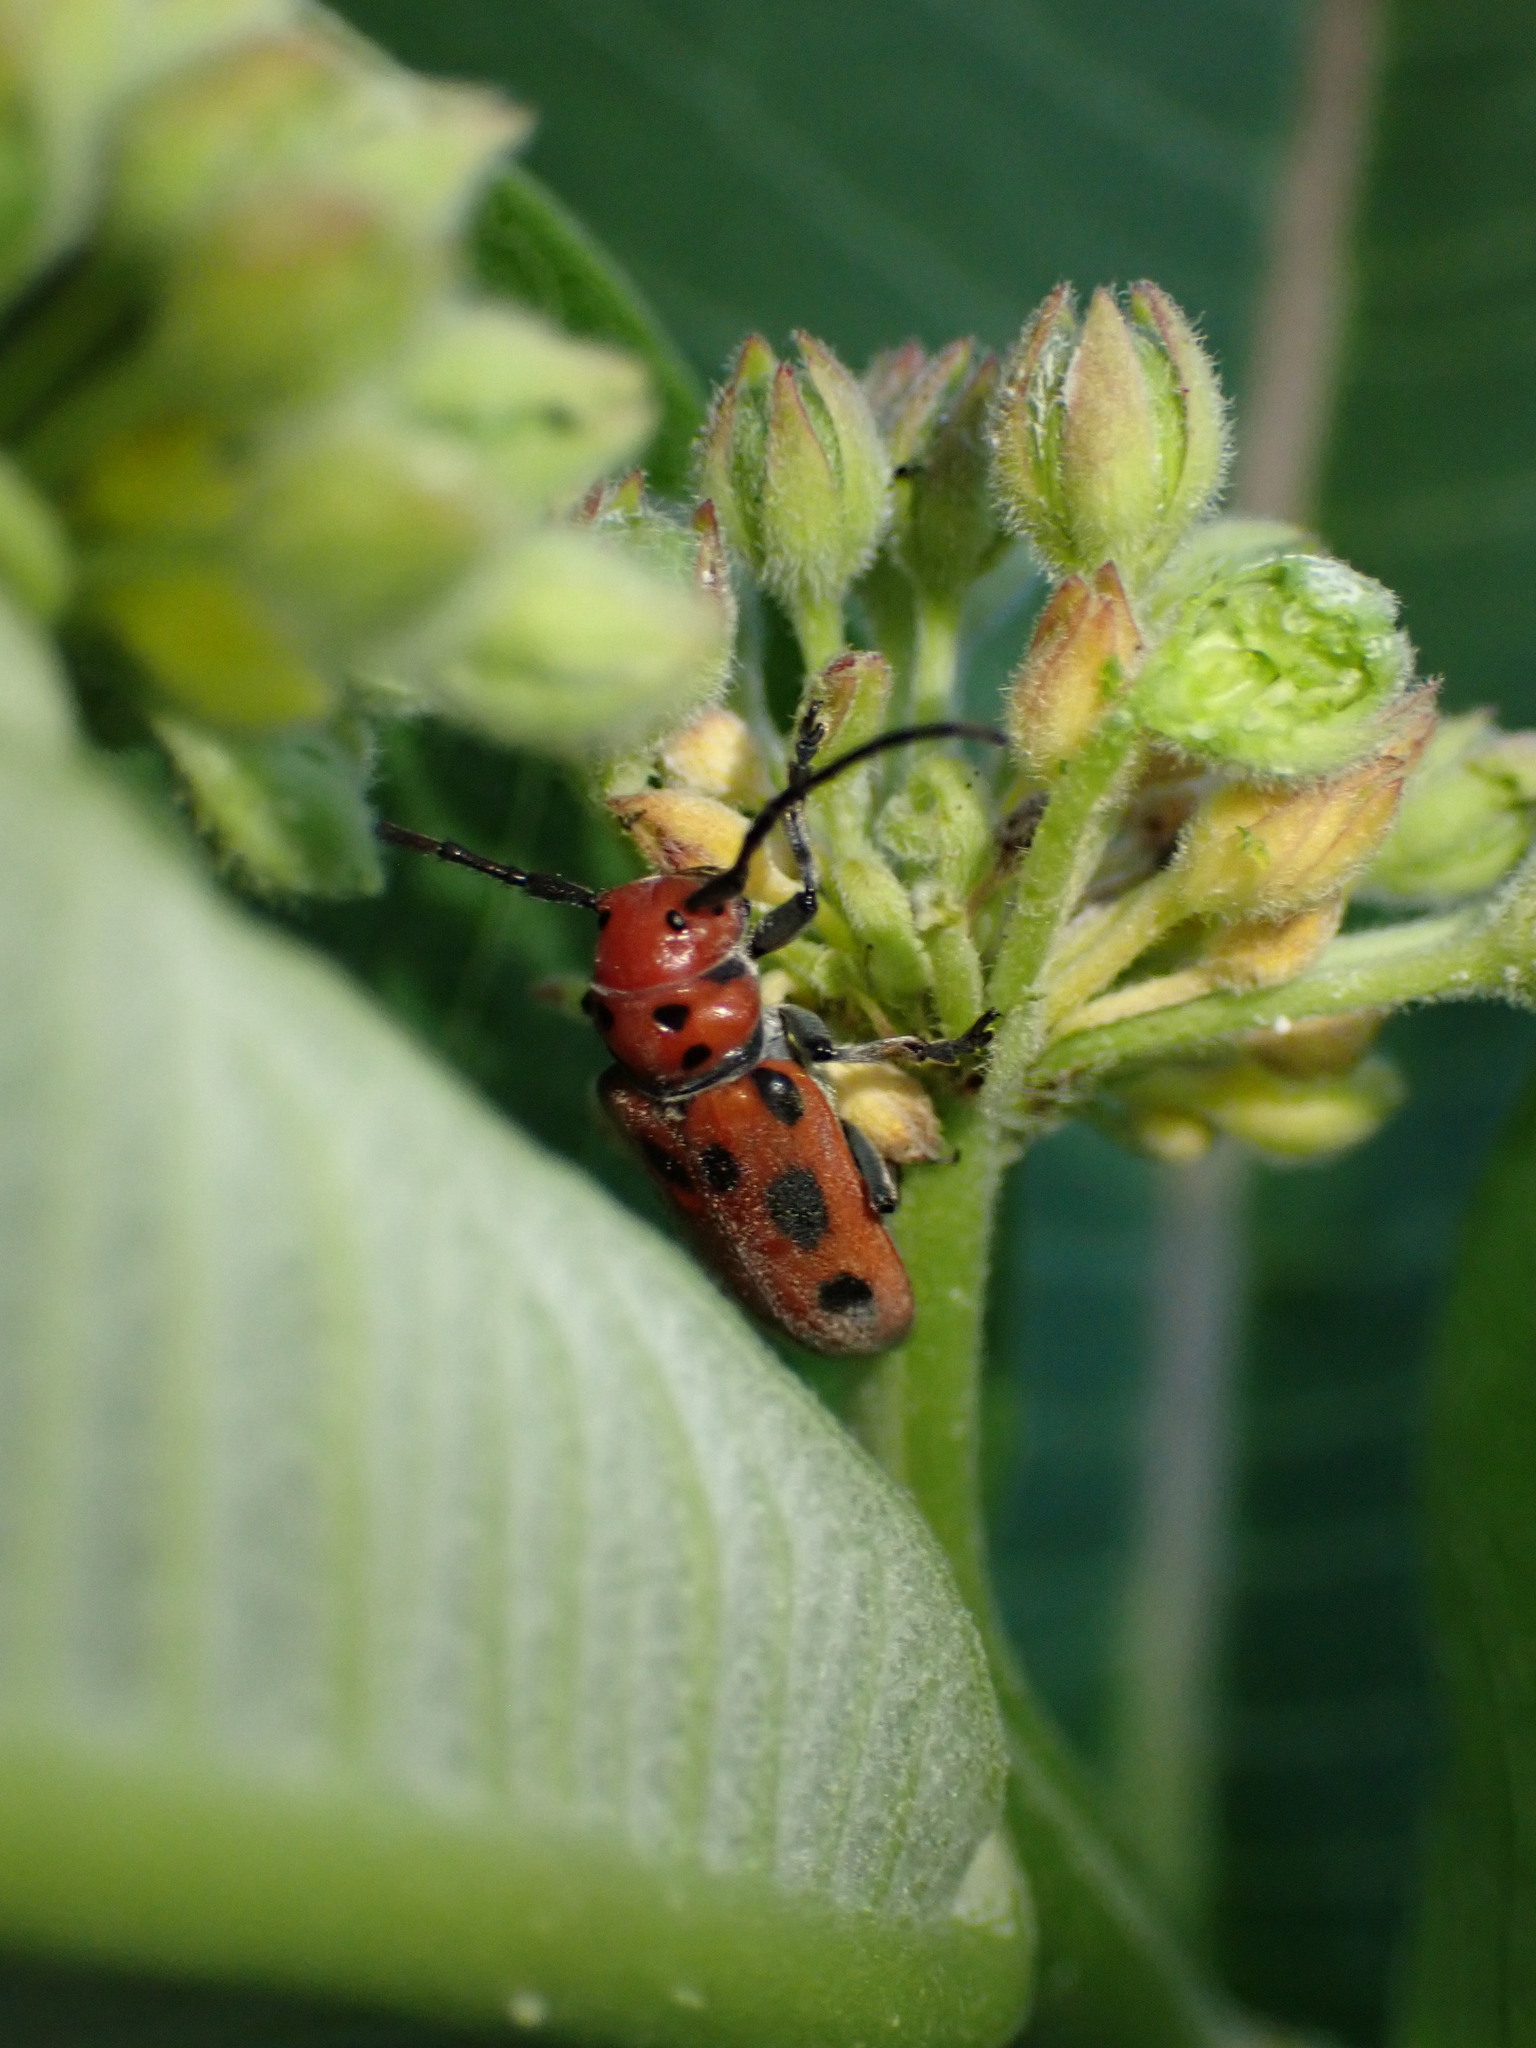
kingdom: Animalia
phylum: Arthropoda
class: Insecta
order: Coleoptera
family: Cerambycidae
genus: Tetraopes
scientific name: Tetraopes tetrophthalmus
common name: Red milkweed beetle
